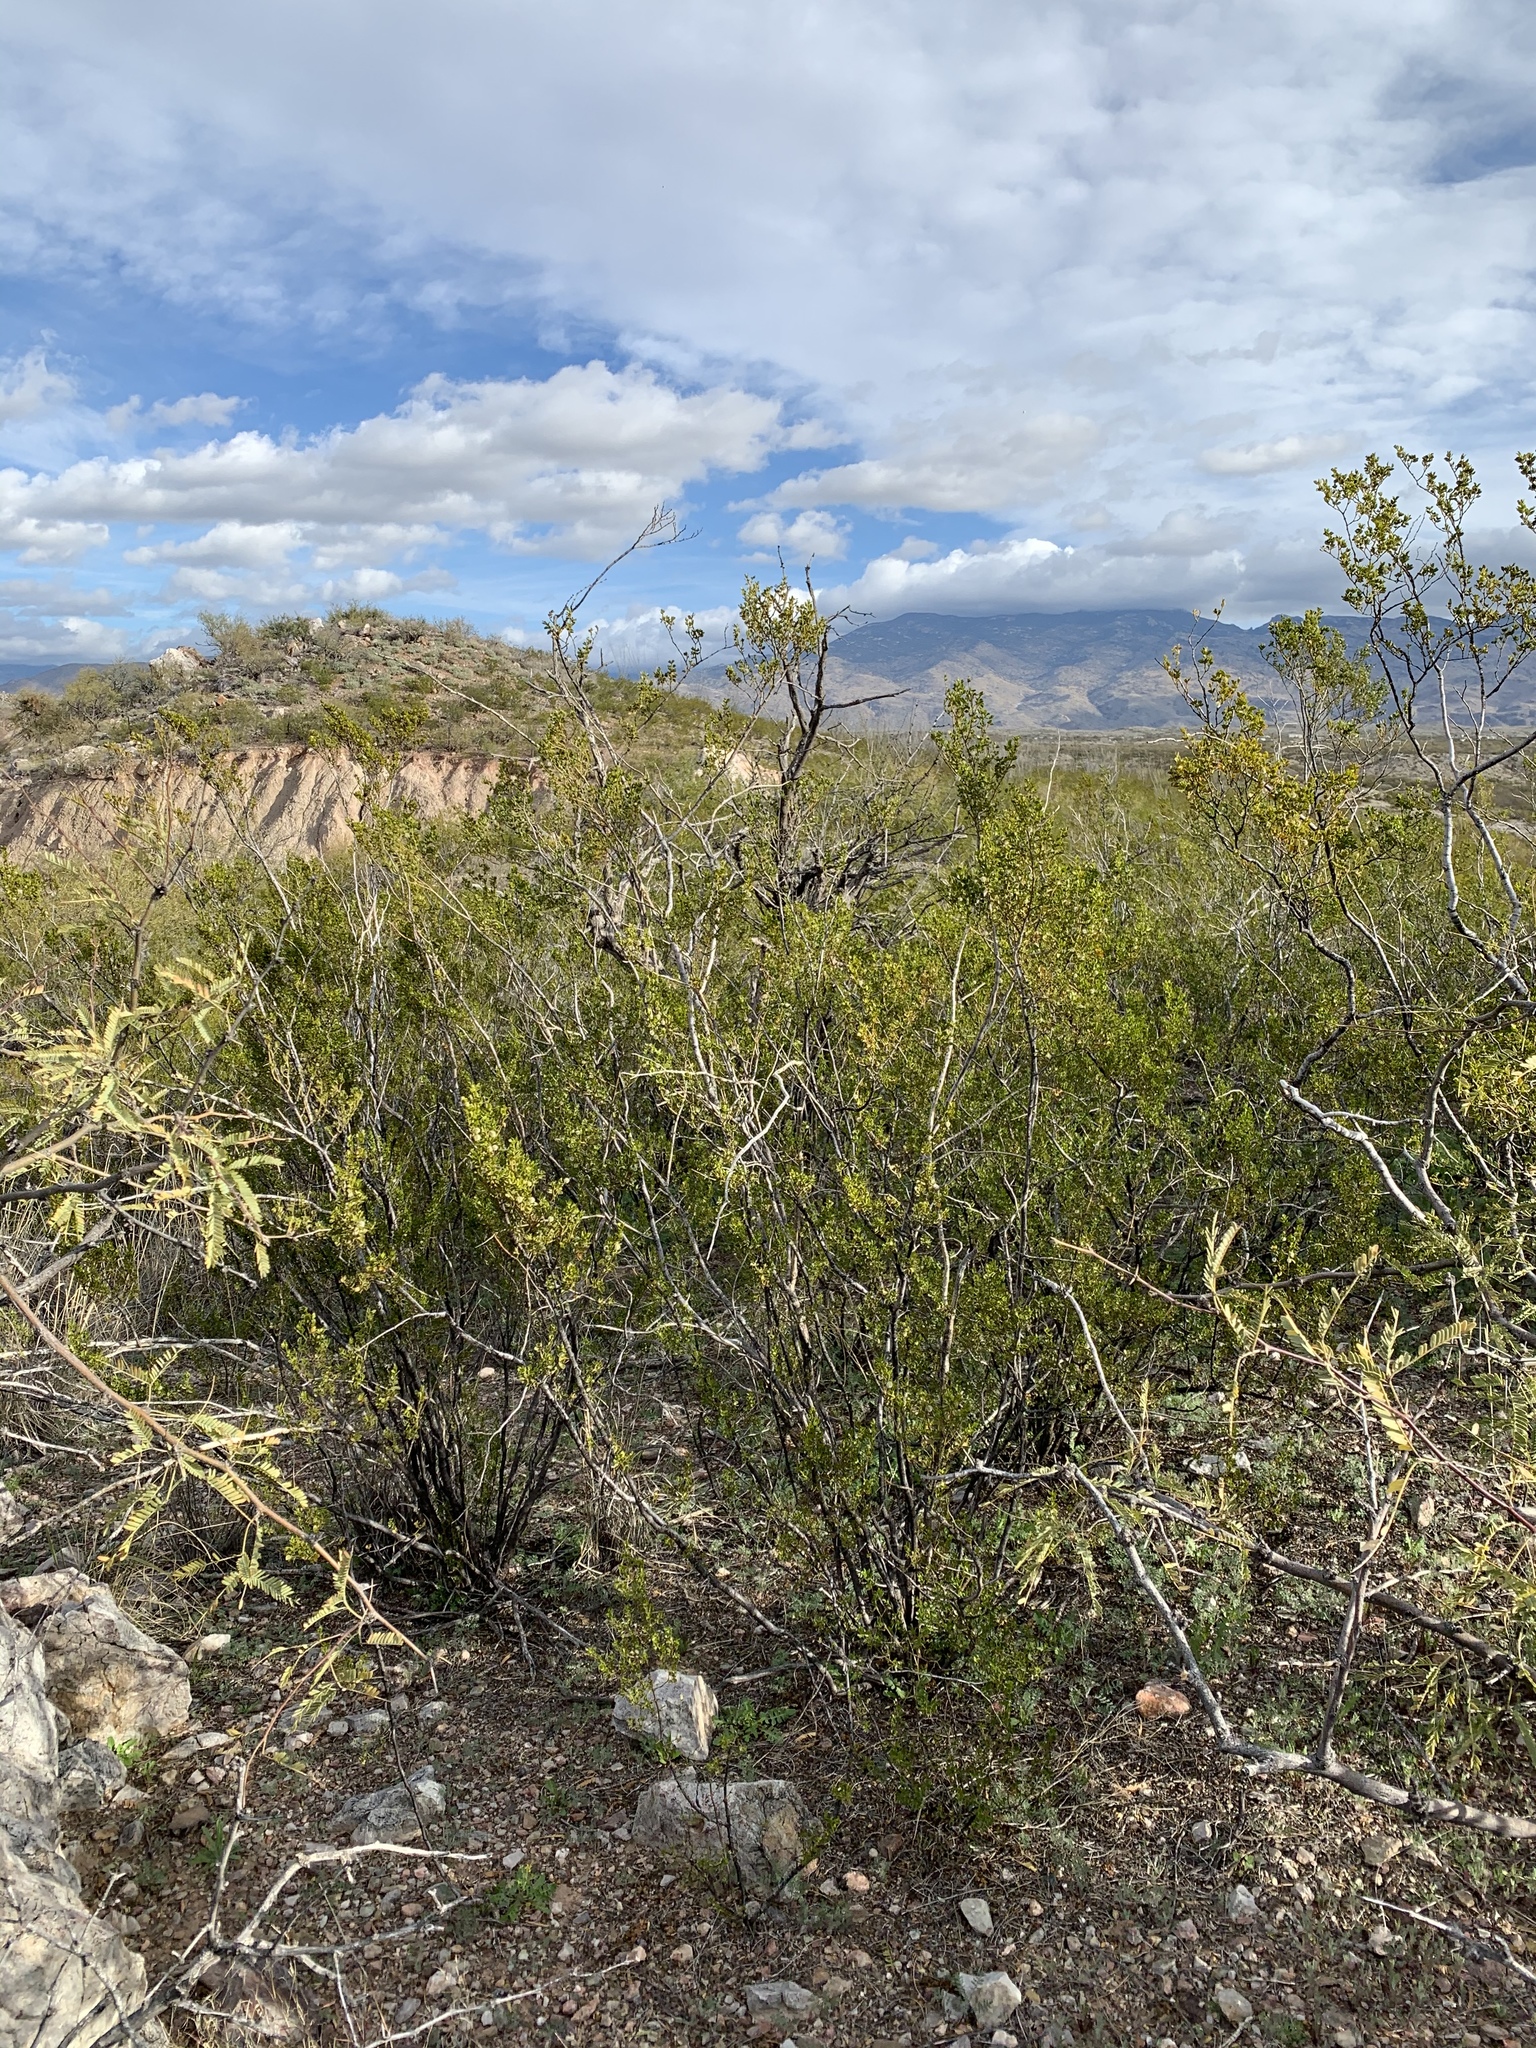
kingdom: Plantae
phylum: Tracheophyta
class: Magnoliopsida
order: Zygophyllales
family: Zygophyllaceae
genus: Larrea
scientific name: Larrea tridentata
